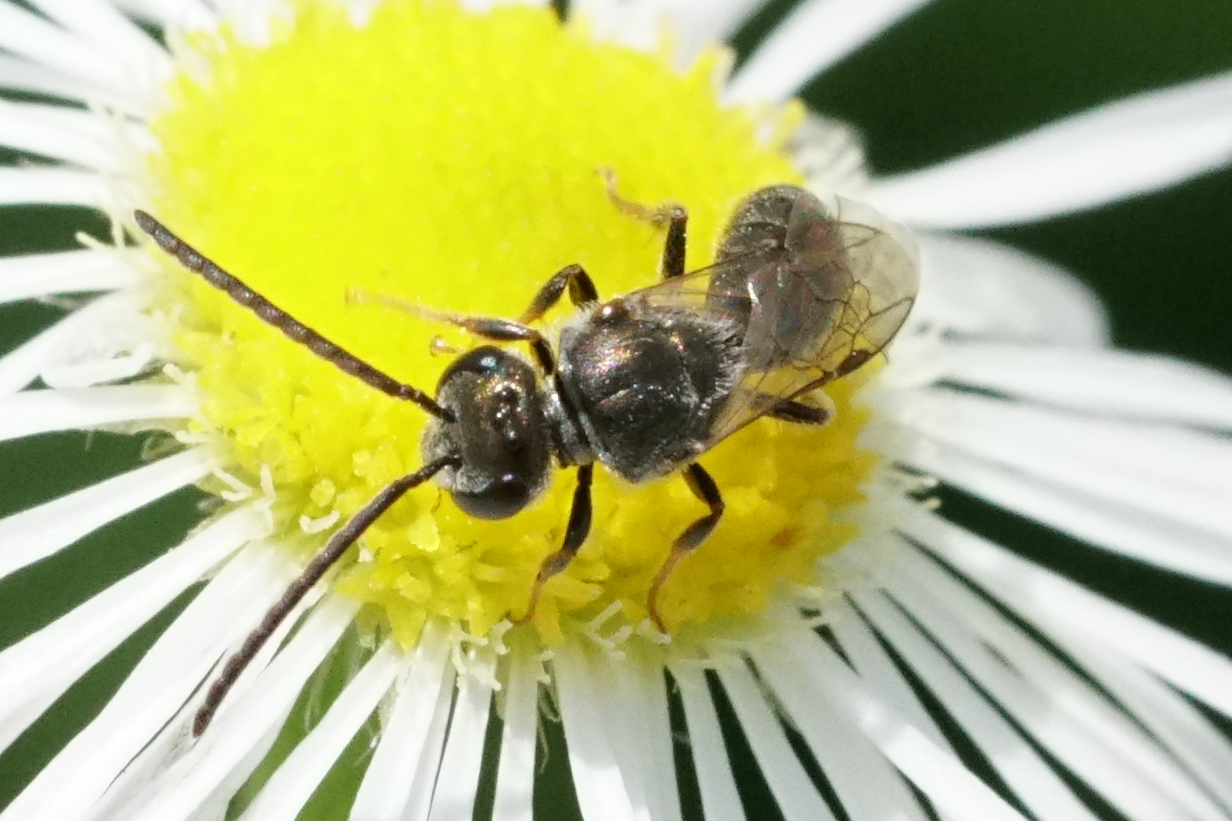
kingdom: Animalia
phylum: Arthropoda
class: Insecta
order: Hymenoptera
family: Halictidae
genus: Dialictus
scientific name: Dialictus
